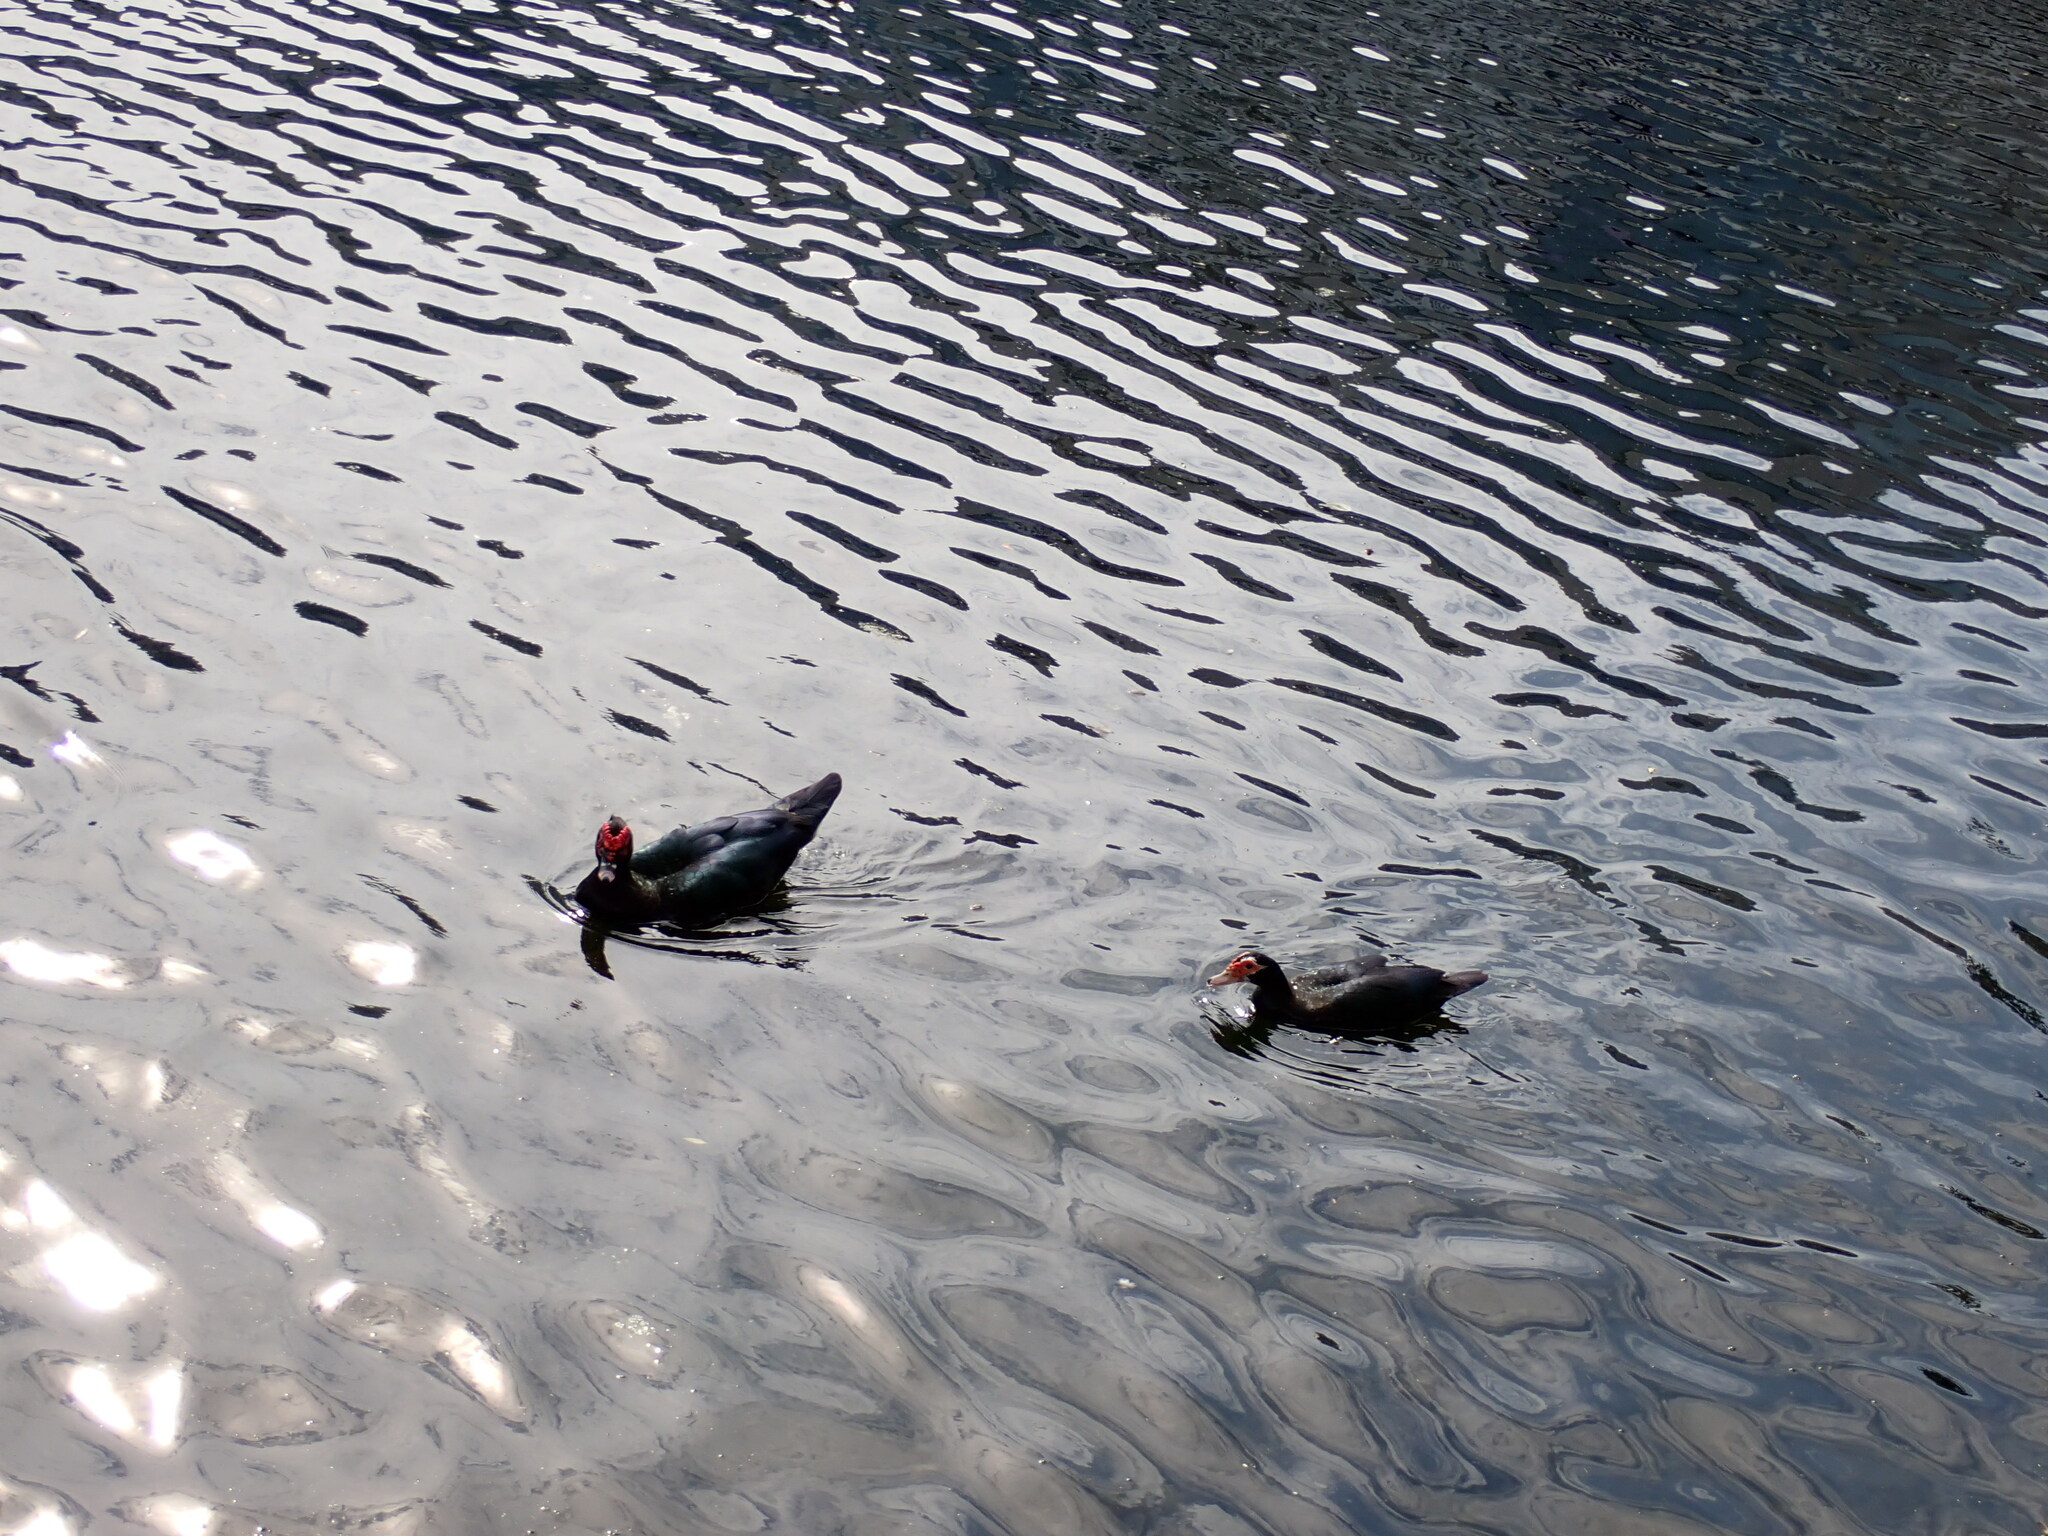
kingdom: Animalia
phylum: Chordata
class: Aves
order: Anseriformes
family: Anatidae
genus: Cairina
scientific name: Cairina moschata
